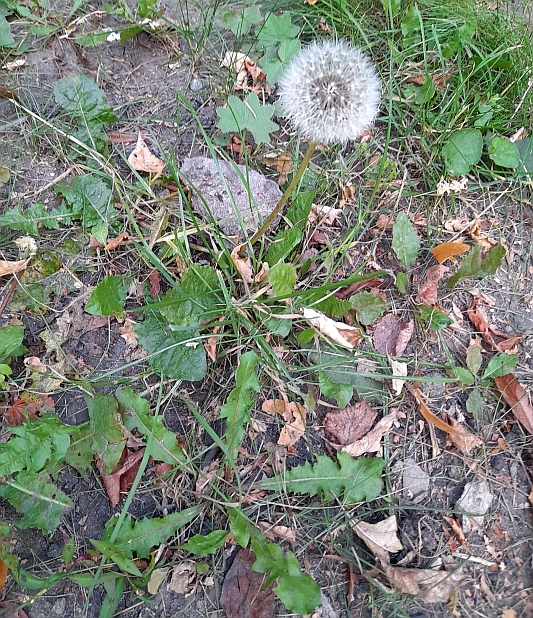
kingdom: Plantae
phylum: Tracheophyta
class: Magnoliopsida
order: Asterales
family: Asteraceae
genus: Taraxacum
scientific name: Taraxacum officinale
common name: Common dandelion
